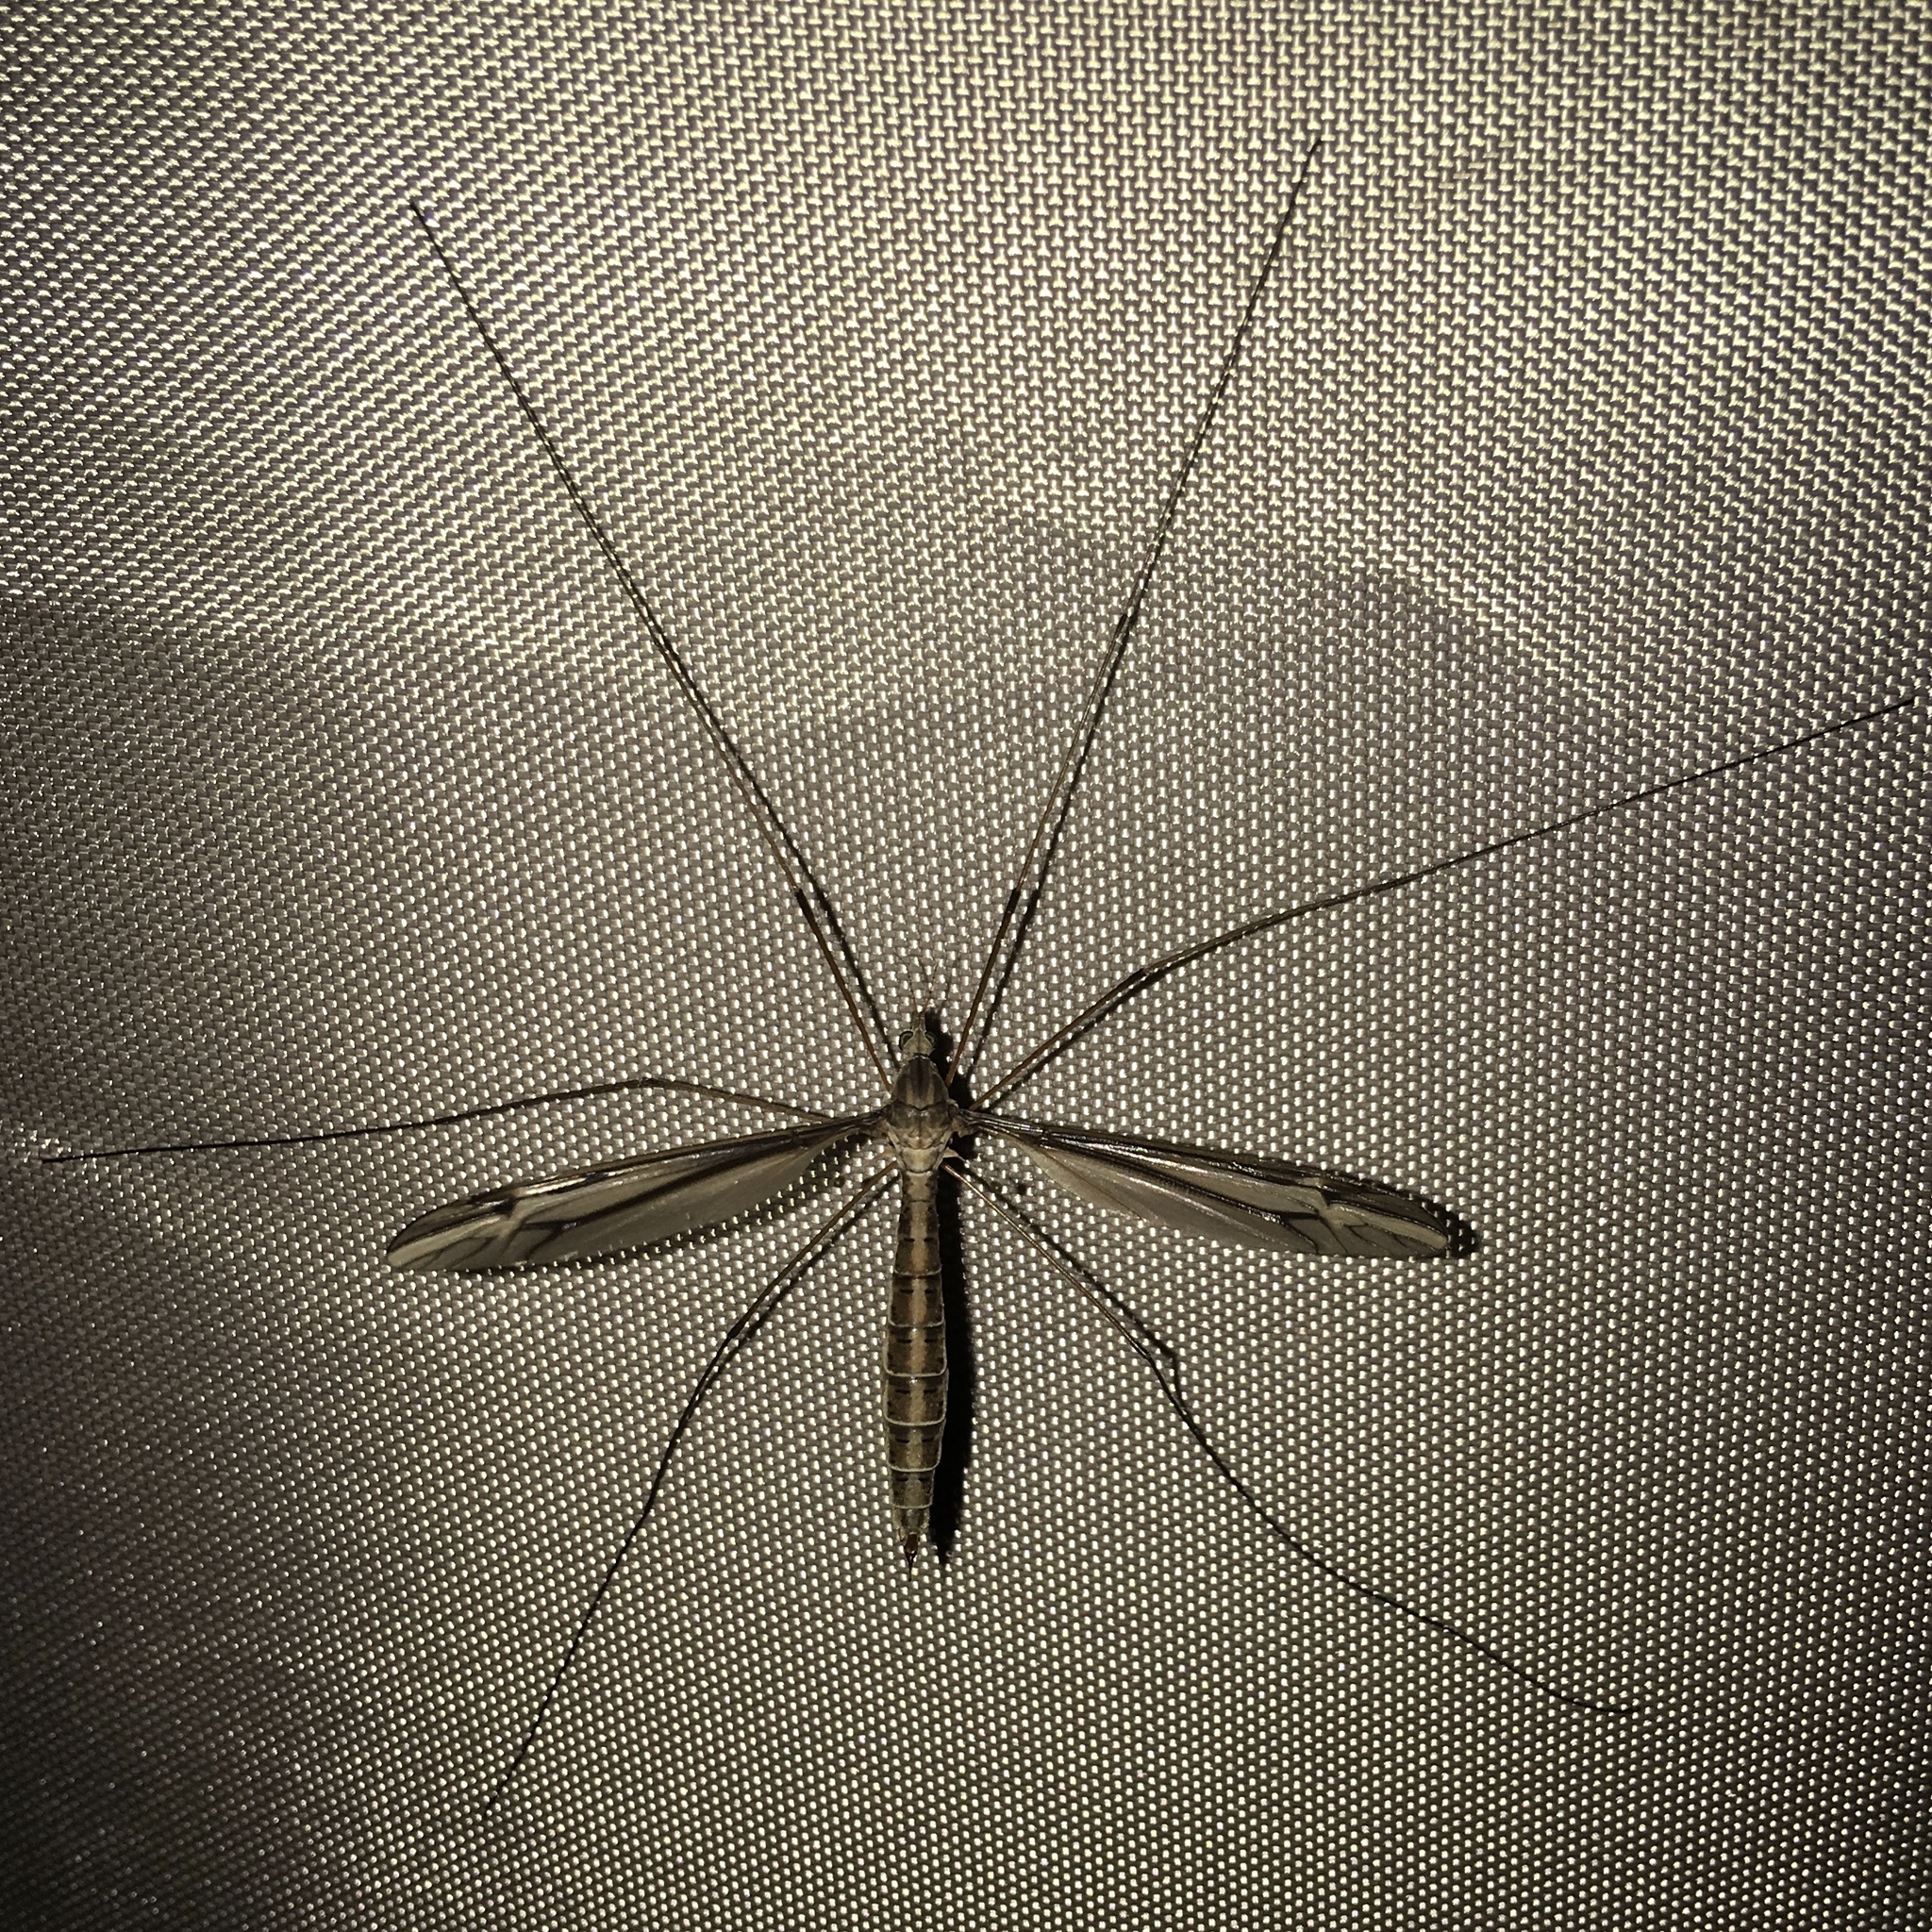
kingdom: Animalia
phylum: Arthropoda
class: Insecta
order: Diptera
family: Tipulidae
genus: Tipula
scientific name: Tipula furca
